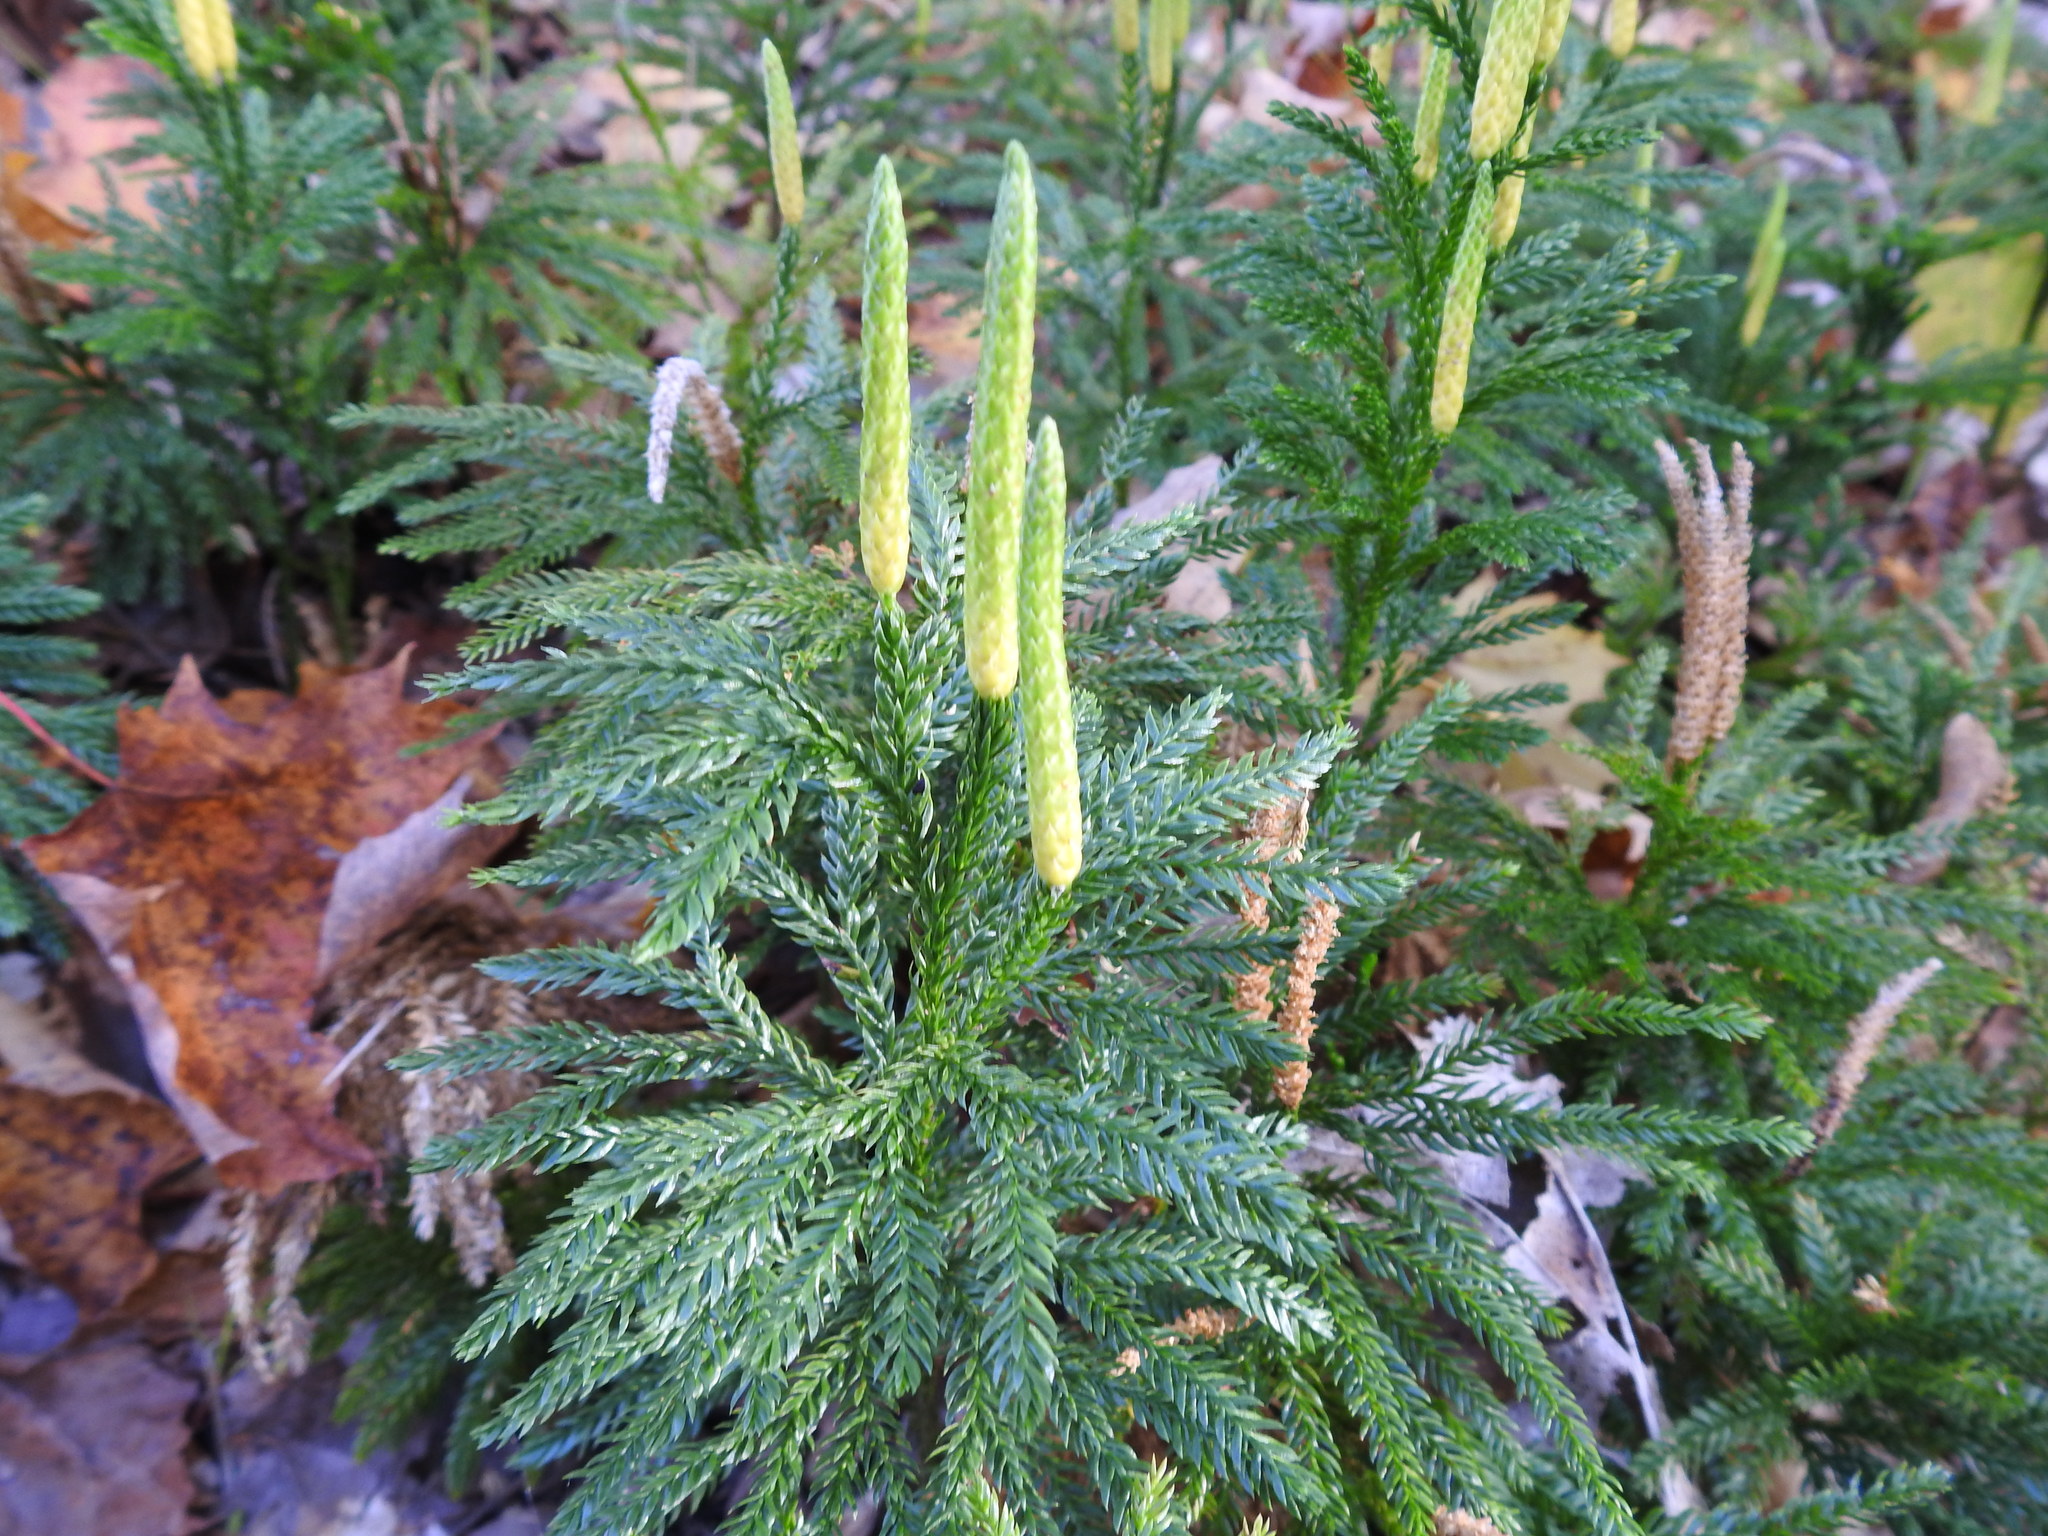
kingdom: Plantae
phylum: Tracheophyta
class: Lycopodiopsida
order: Lycopodiales
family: Lycopodiaceae
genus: Dendrolycopodium
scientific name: Dendrolycopodium obscurum
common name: Common ground-pine
